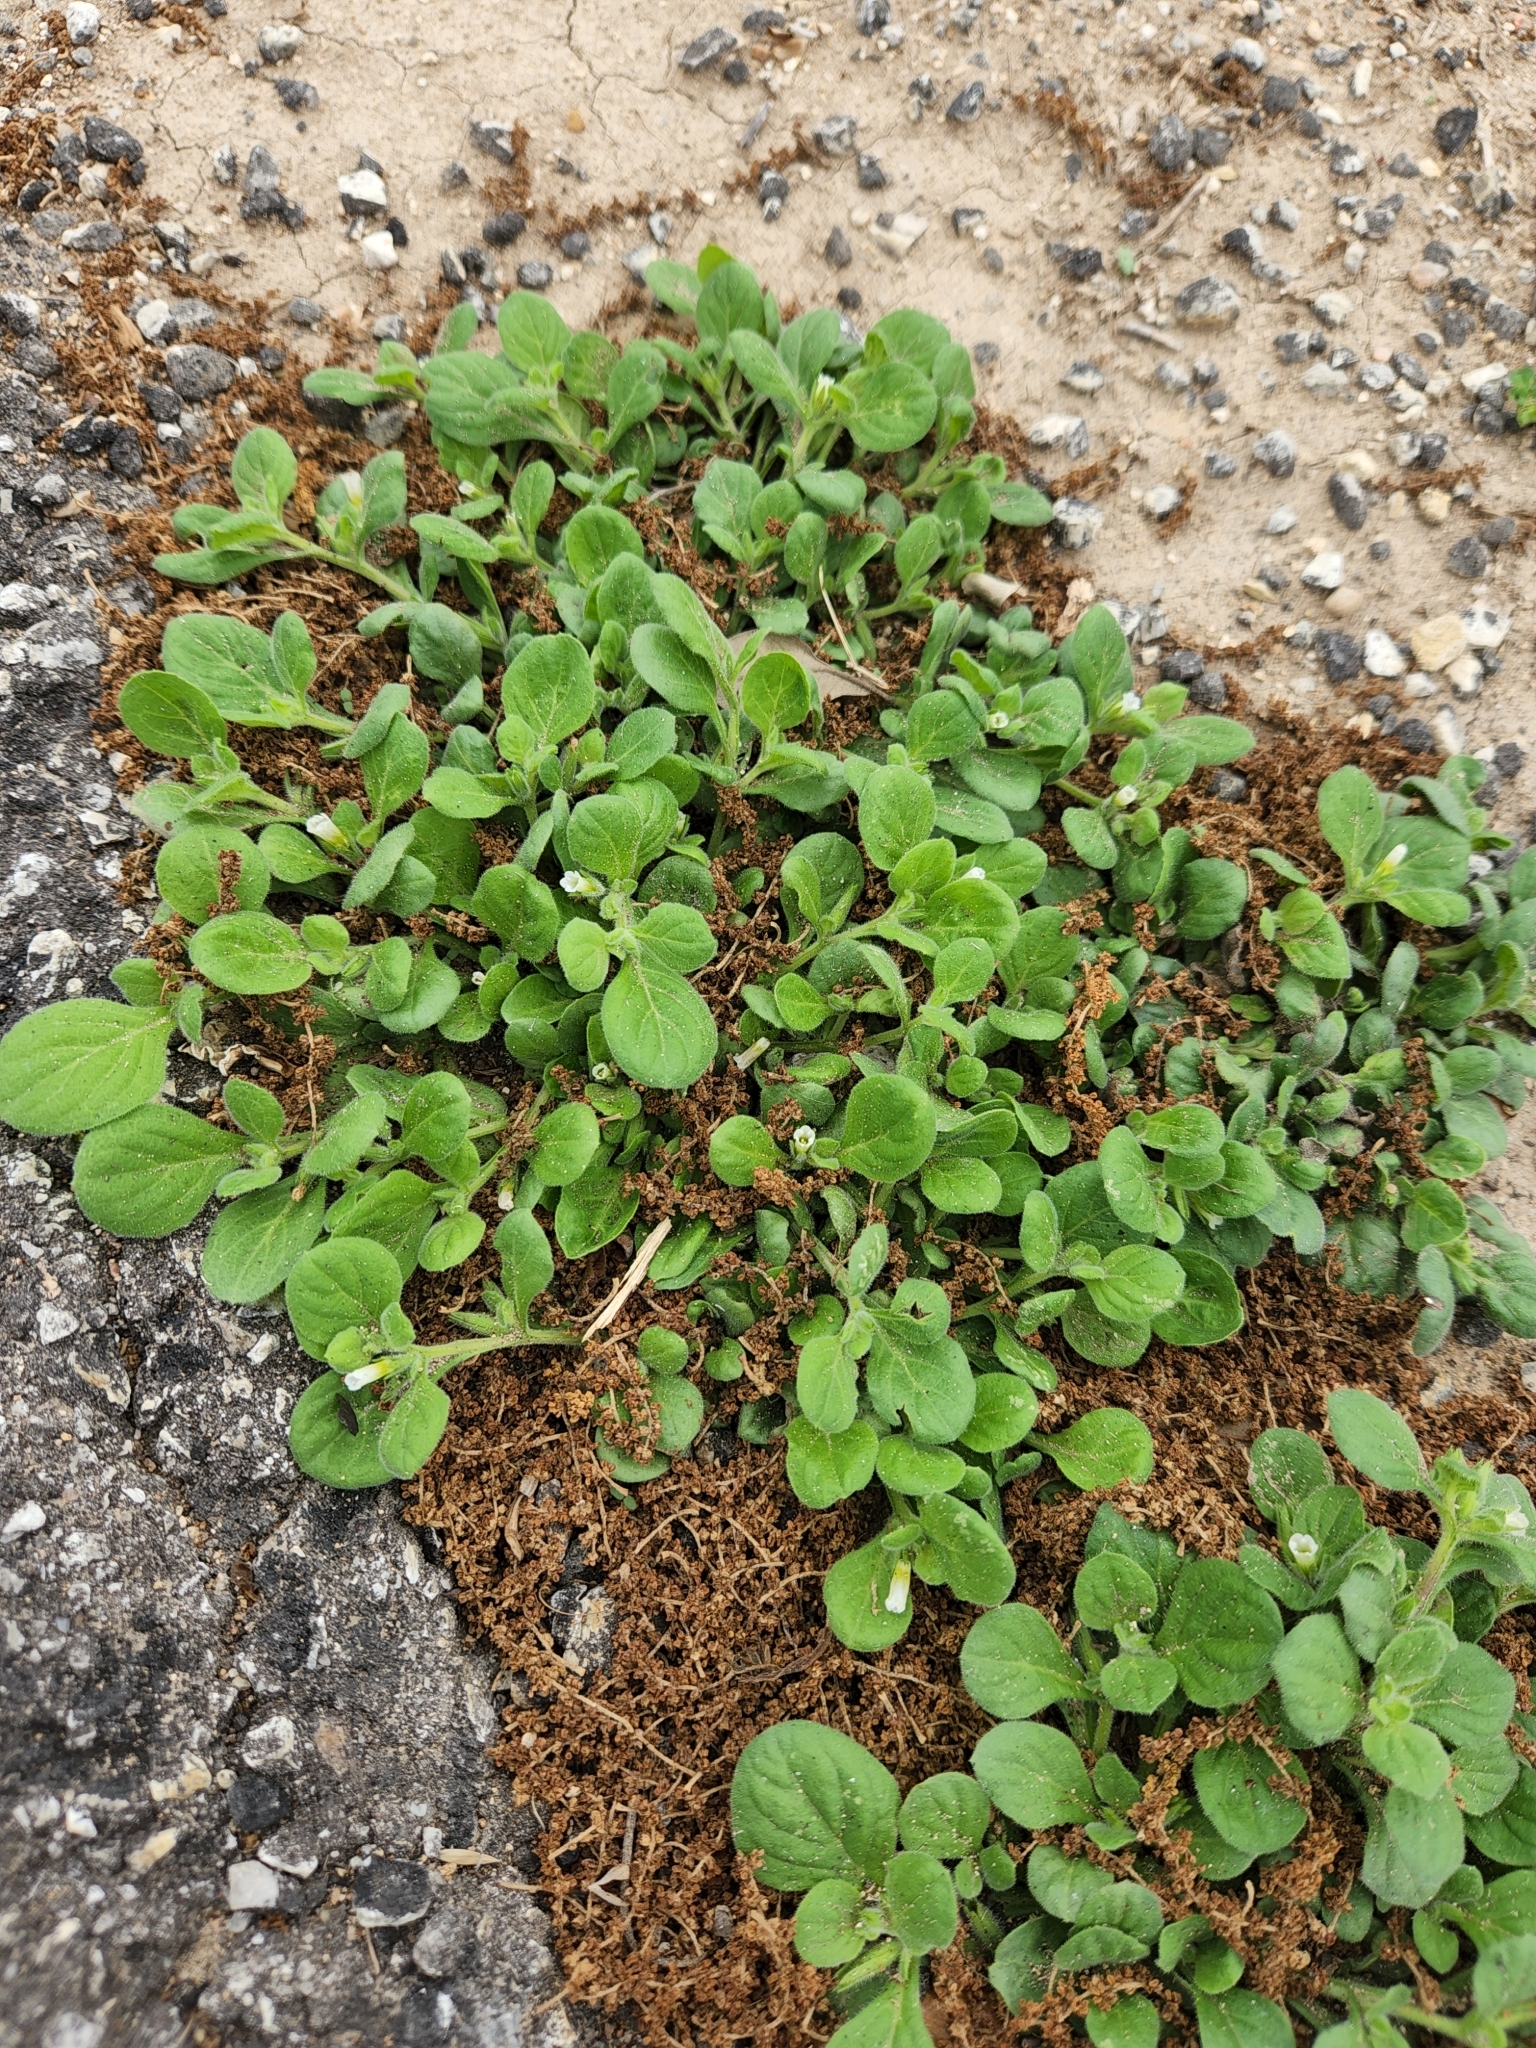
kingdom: Plantae
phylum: Tracheophyta
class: Magnoliopsida
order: Boraginales
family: Namaceae
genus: Nama
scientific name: Nama jamaicensis
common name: Jamaicanweed
